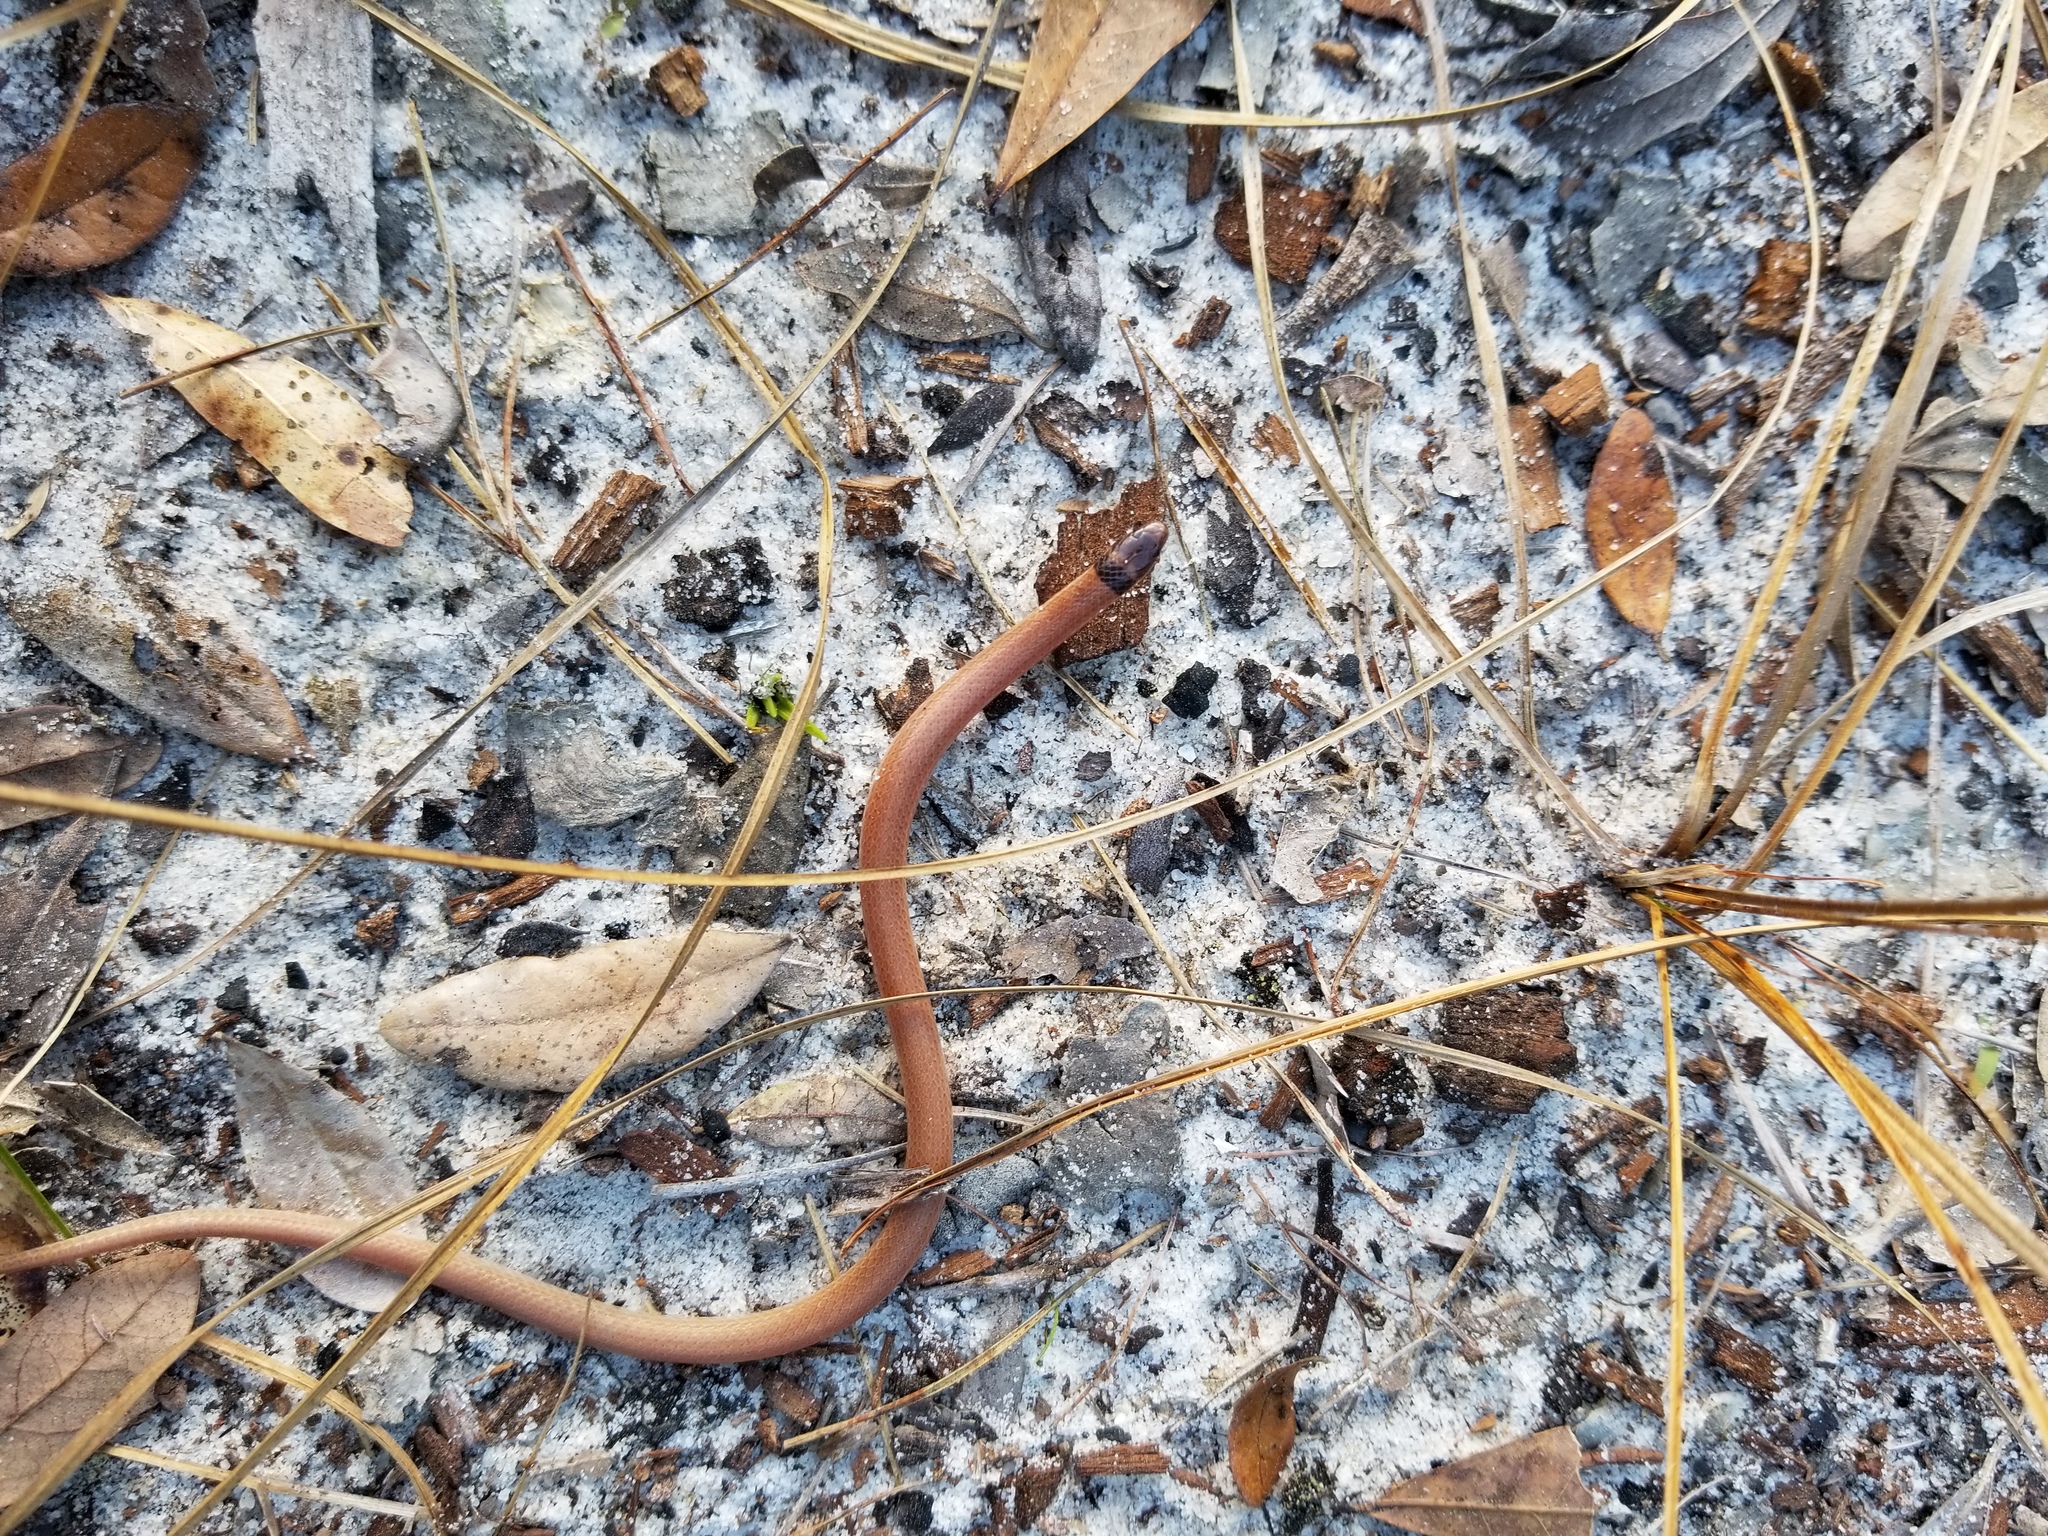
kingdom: Animalia
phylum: Chordata
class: Squamata
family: Colubridae
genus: Tantilla
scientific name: Tantilla relicta
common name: Florida crowned snake
